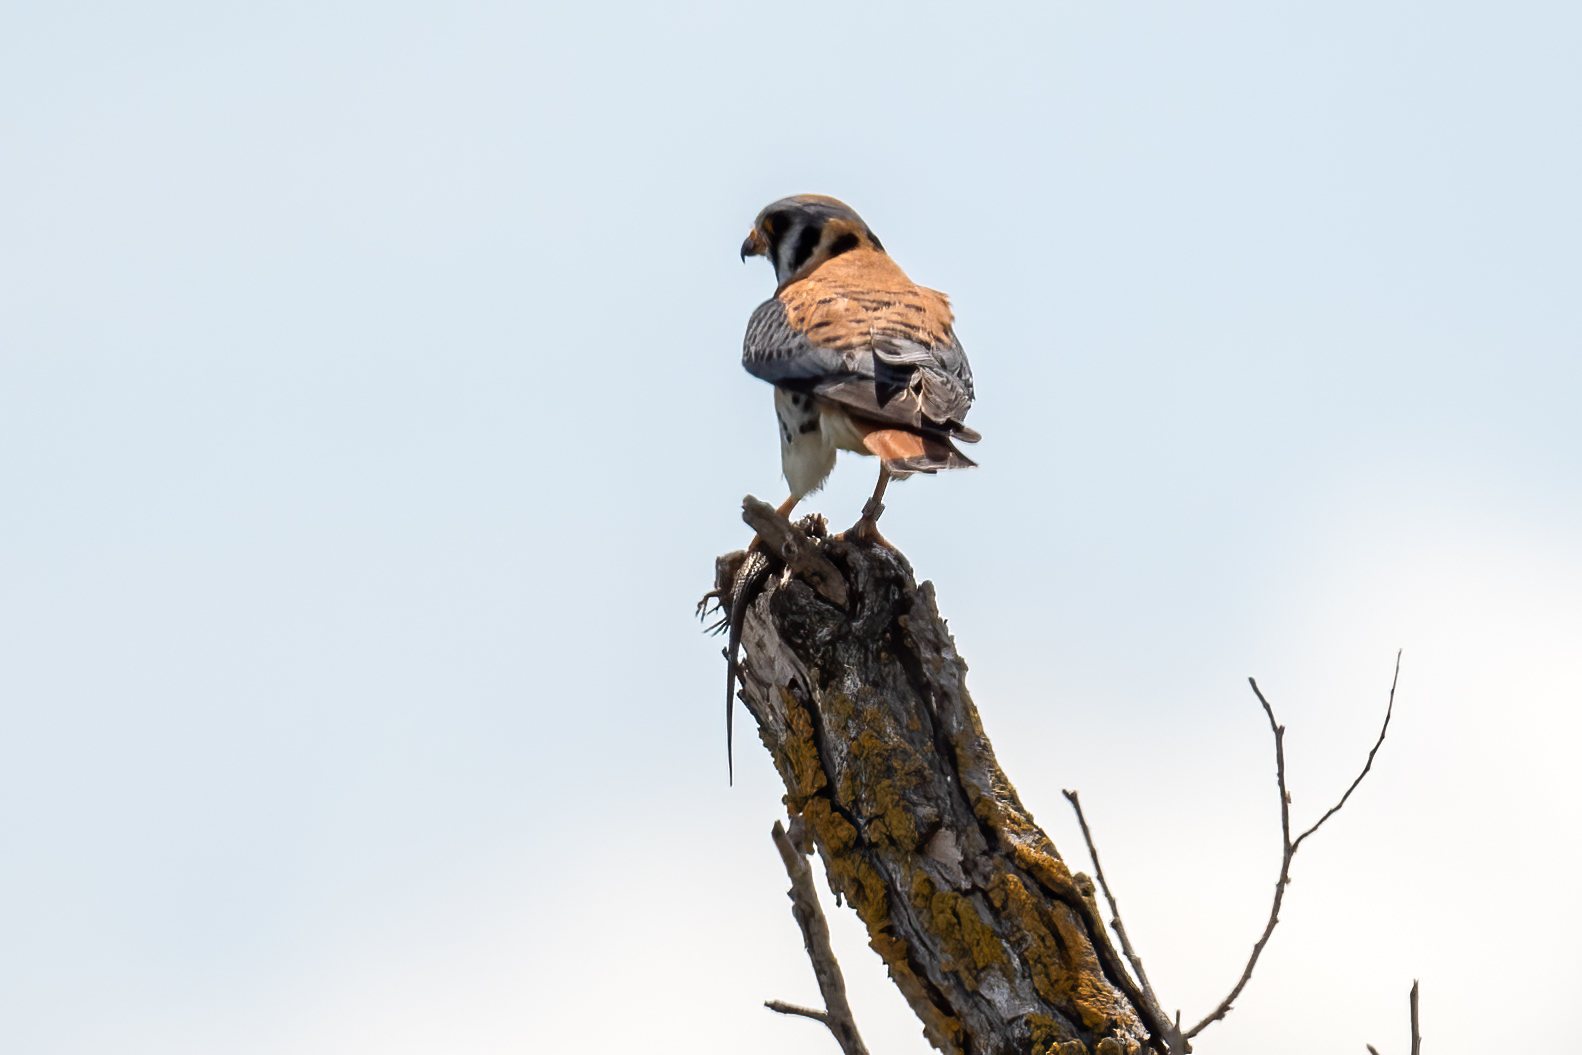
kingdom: Animalia
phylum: Chordata
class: Aves
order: Falconiformes
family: Falconidae
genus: Falco
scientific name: Falco sparverius
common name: American kestrel
